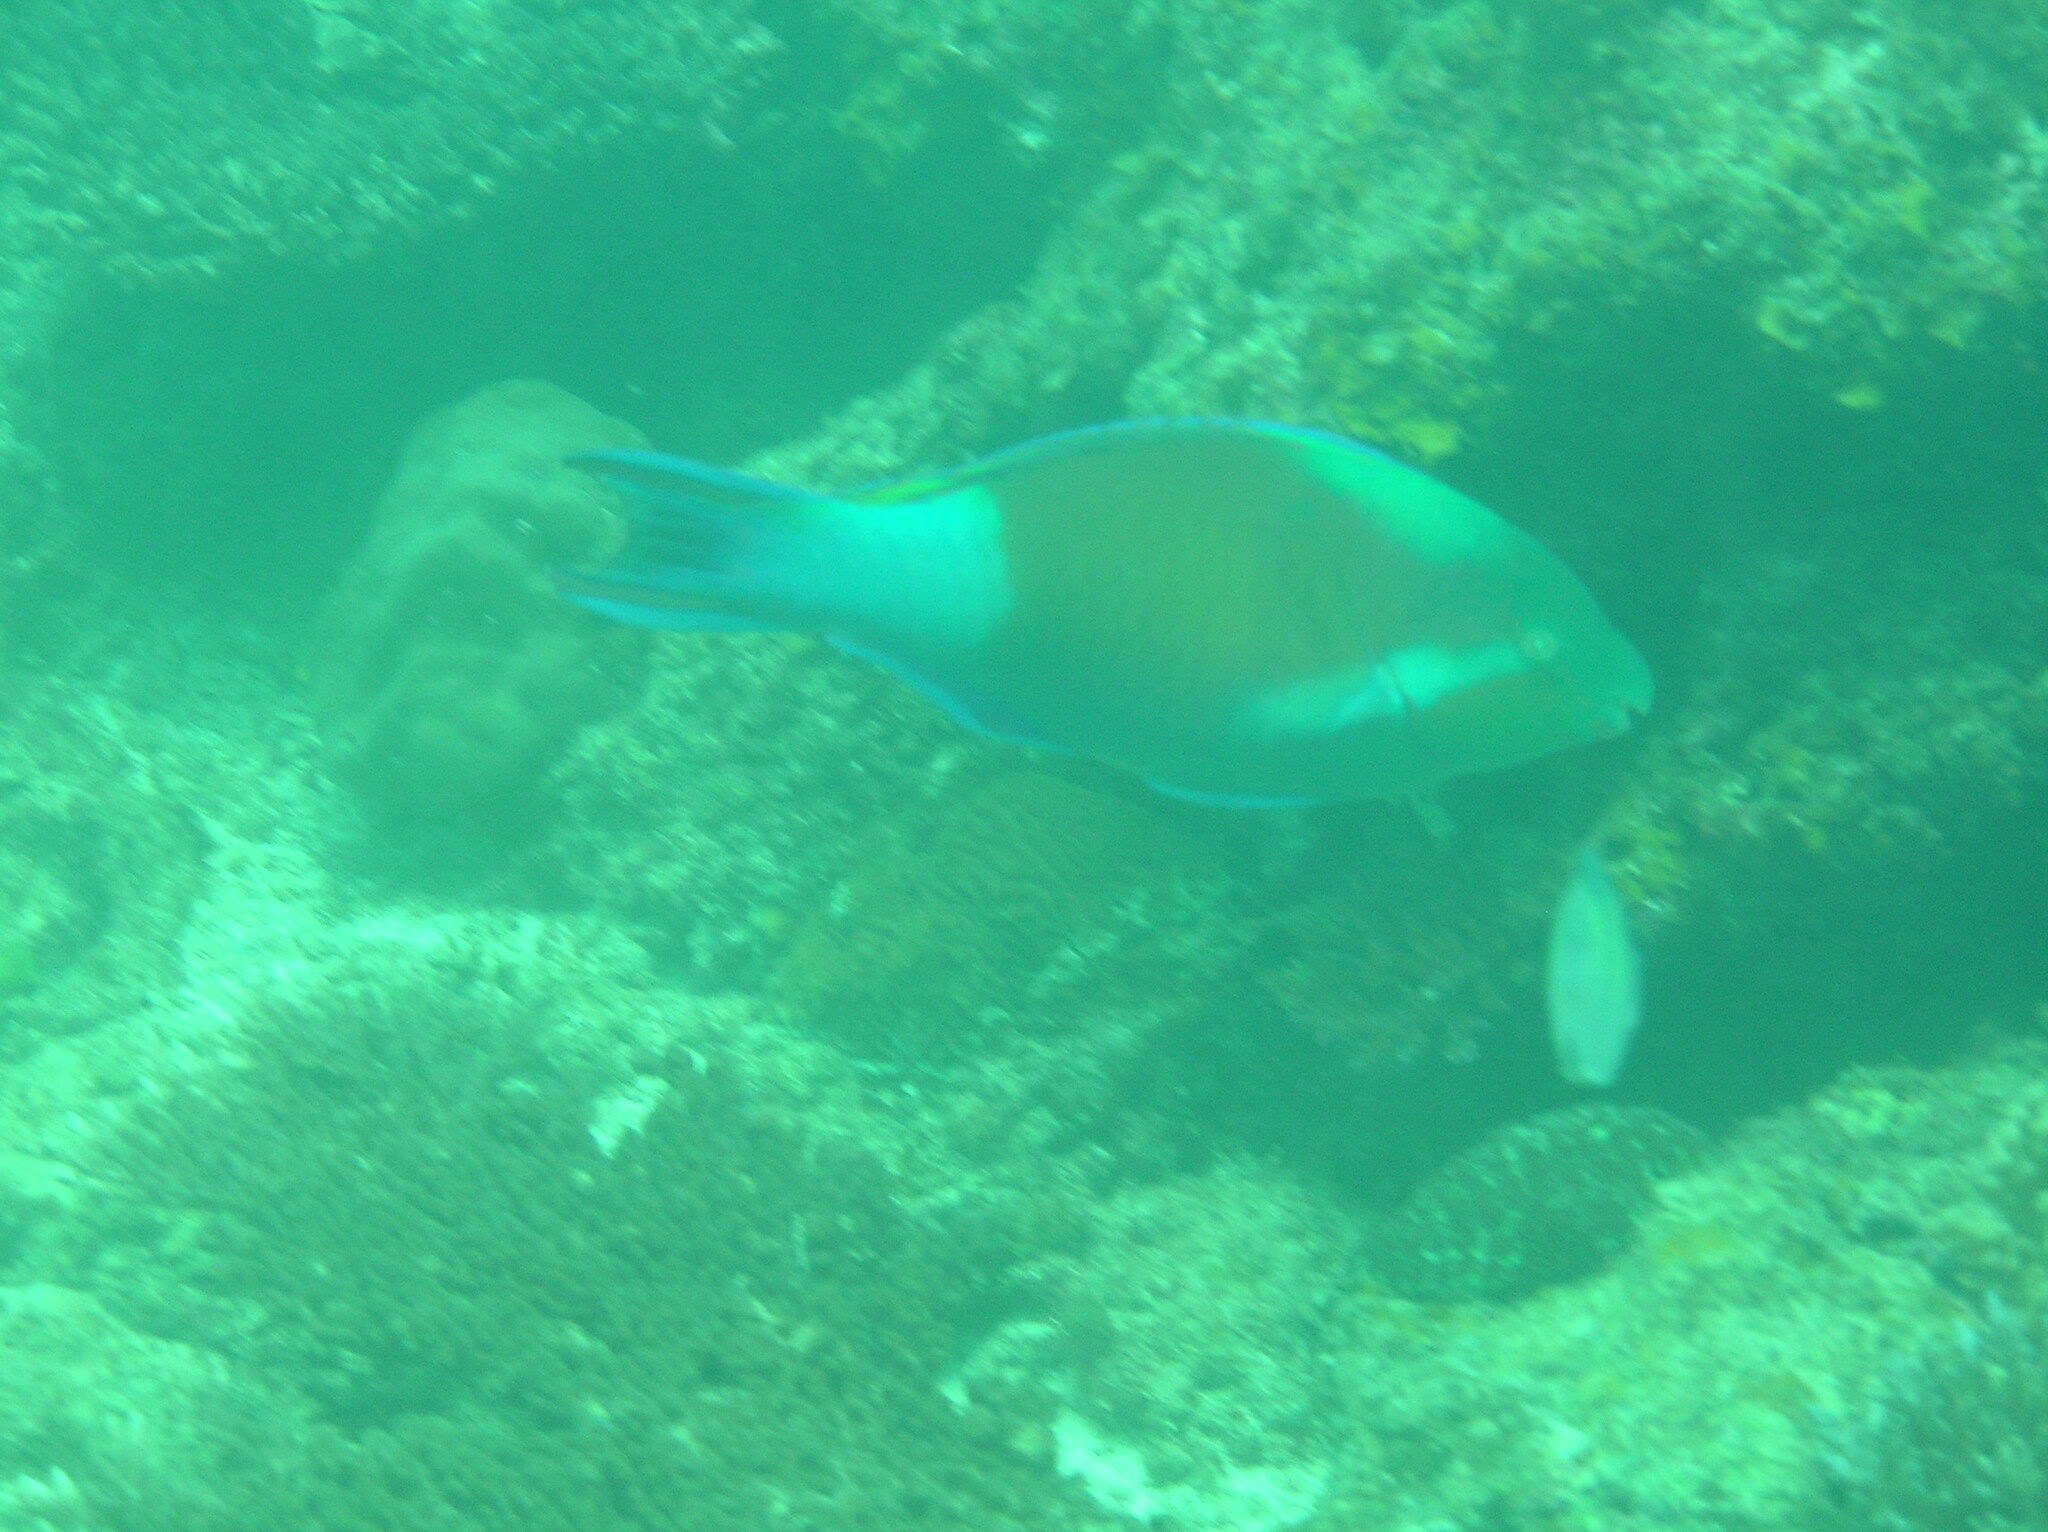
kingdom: Animalia
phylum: Chordata
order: Perciformes
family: Scaridae
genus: Scarus
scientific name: Scarus hypselopterus
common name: Java parrotfish
